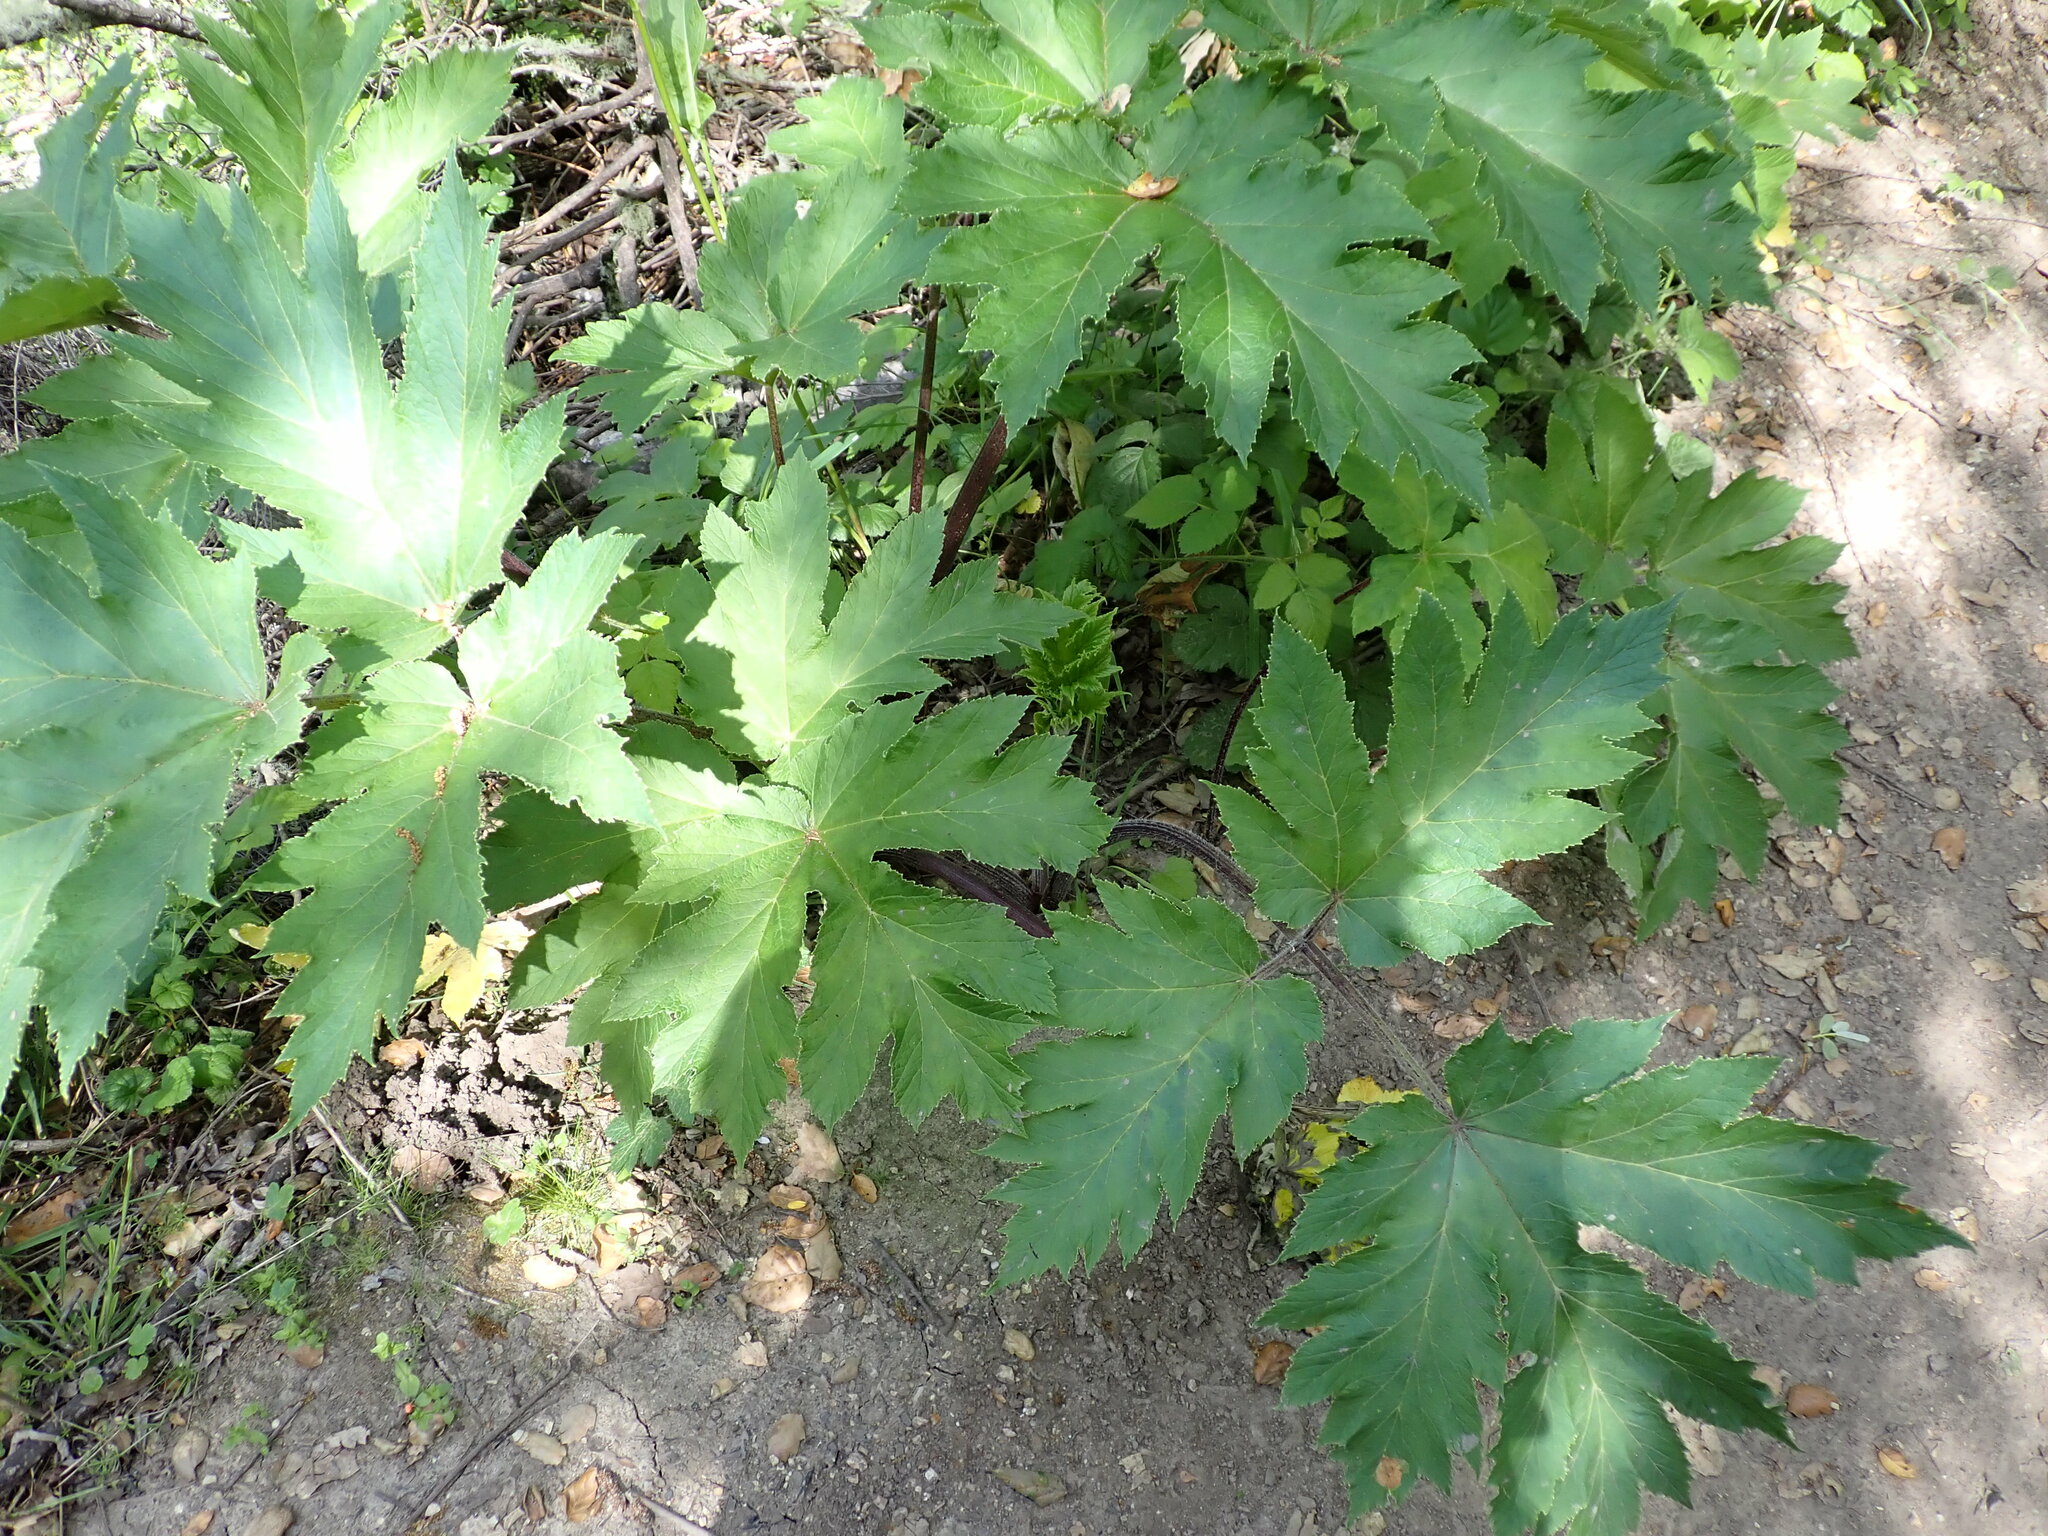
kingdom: Plantae
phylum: Tracheophyta
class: Magnoliopsida
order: Apiales
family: Apiaceae
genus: Heracleum
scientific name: Heracleum maximum
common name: American cow parsnip
